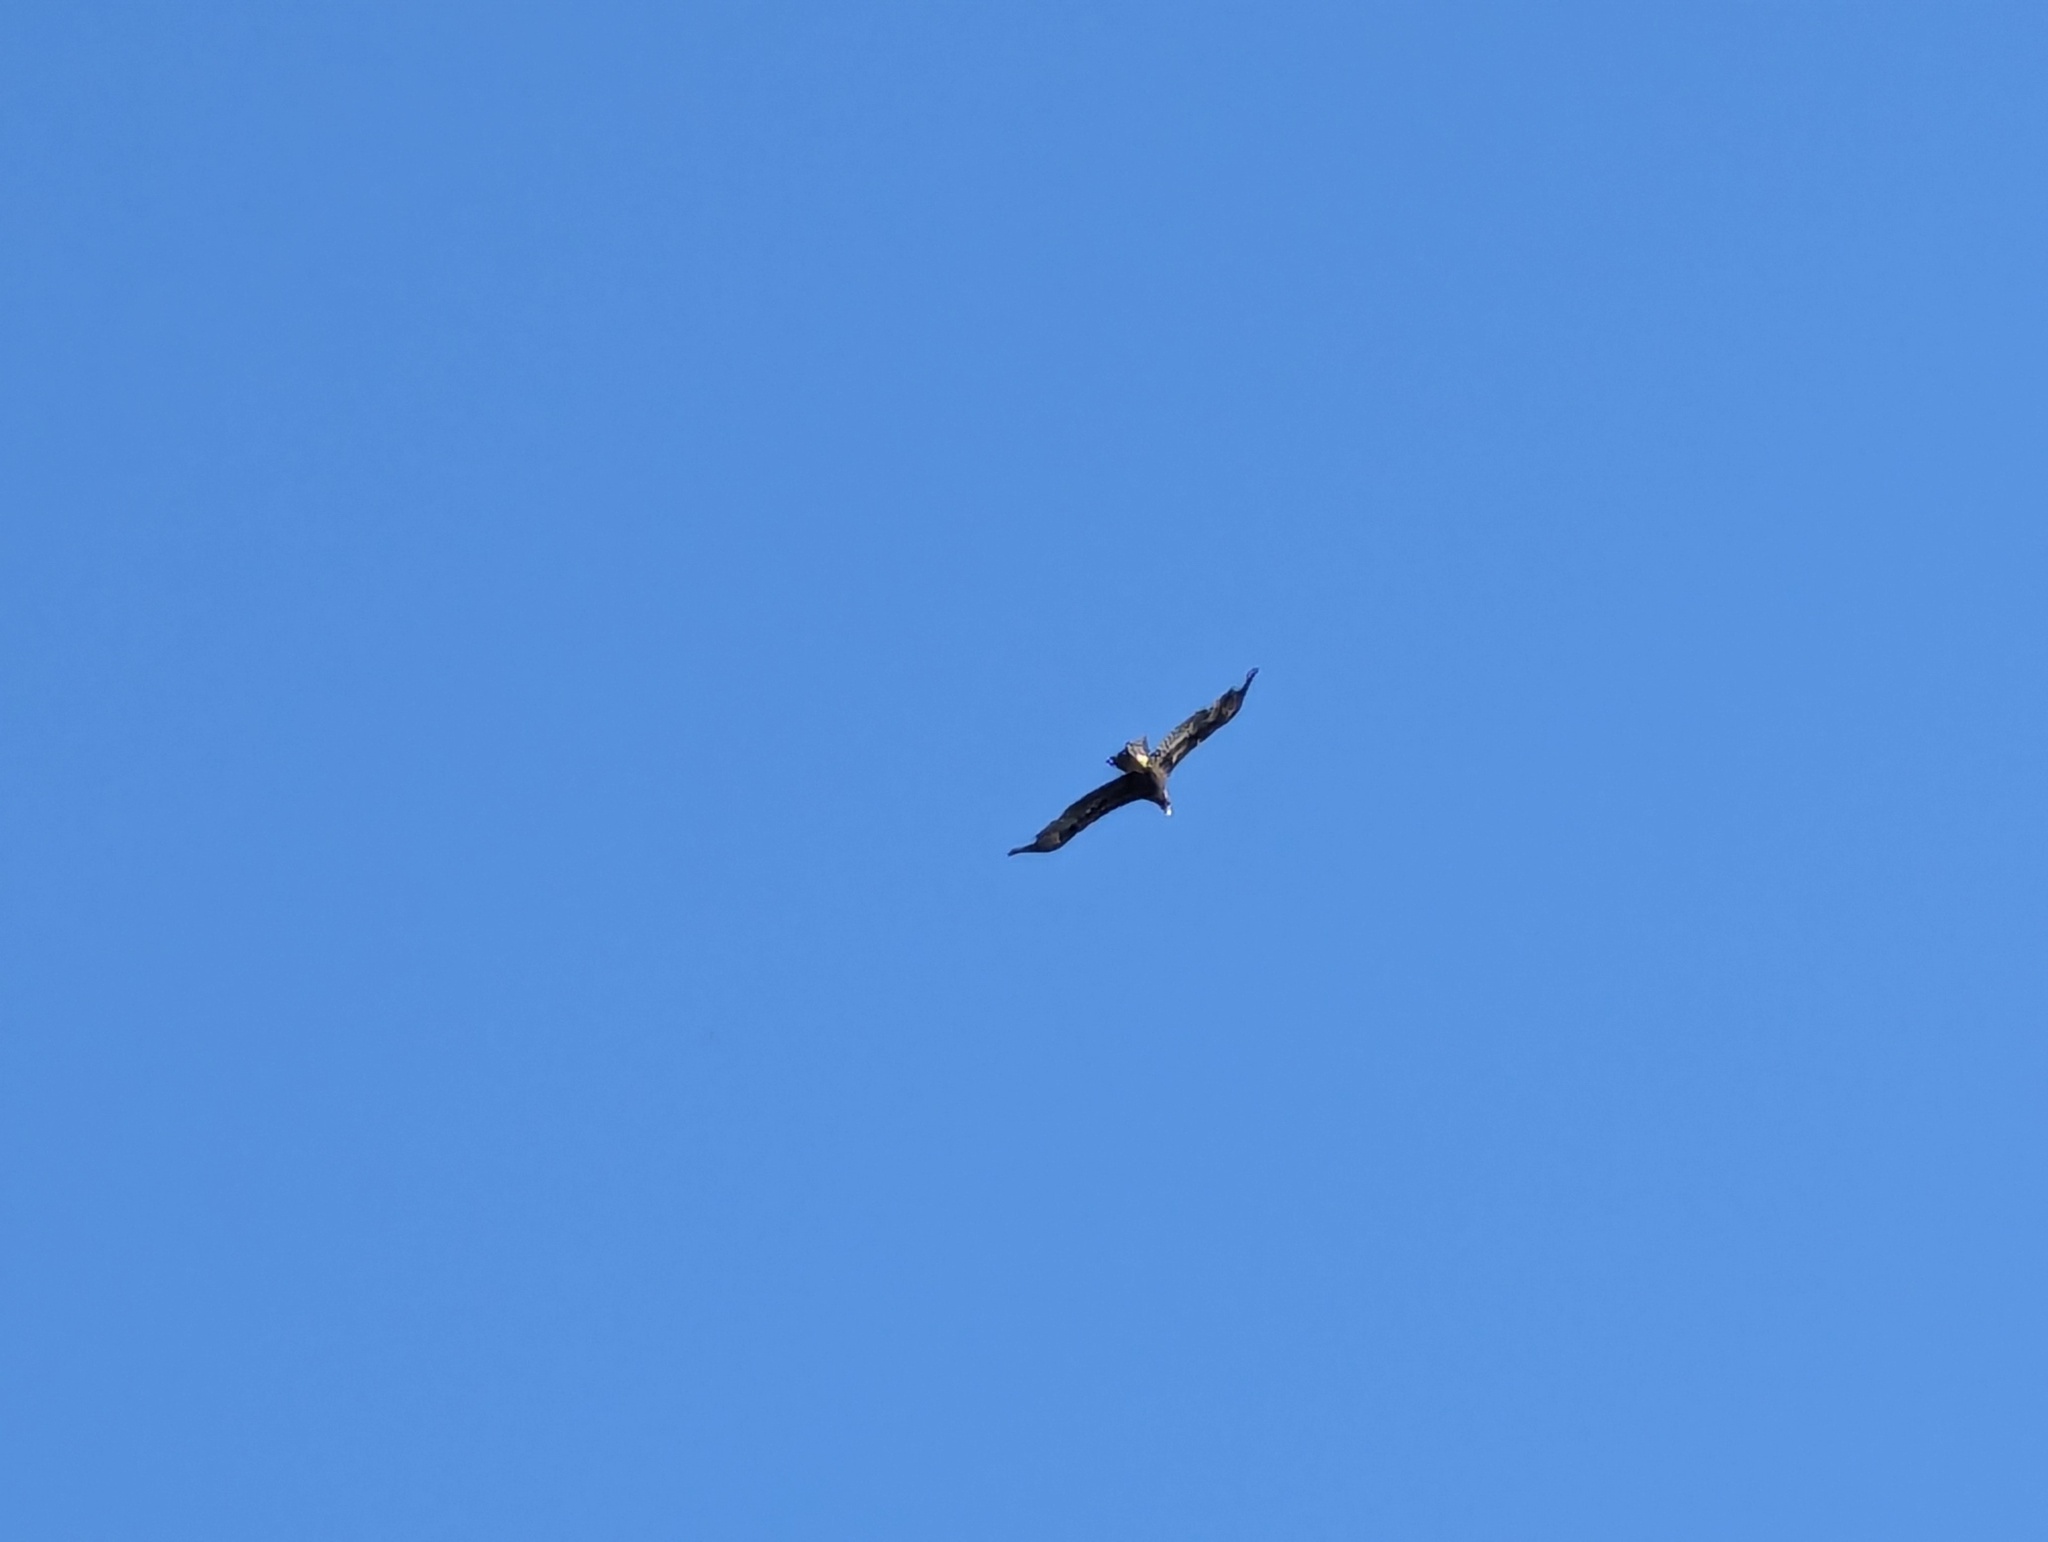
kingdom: Animalia
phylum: Chordata
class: Aves
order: Accipitriformes
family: Accipitridae
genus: Aquila
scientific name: Aquila audax
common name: Wedge-tailed eagle
